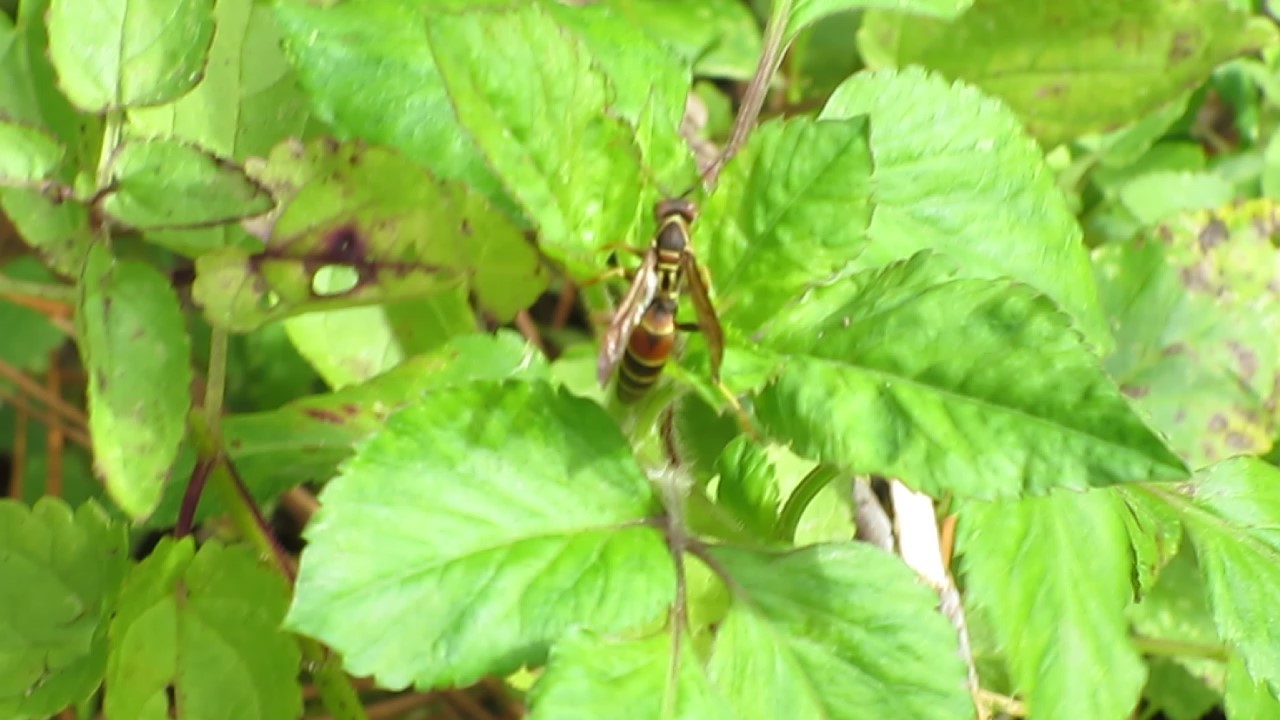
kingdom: Animalia
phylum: Arthropoda
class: Insecta
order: Hymenoptera
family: Eumenidae
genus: Polistes
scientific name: Polistes dorsalis
